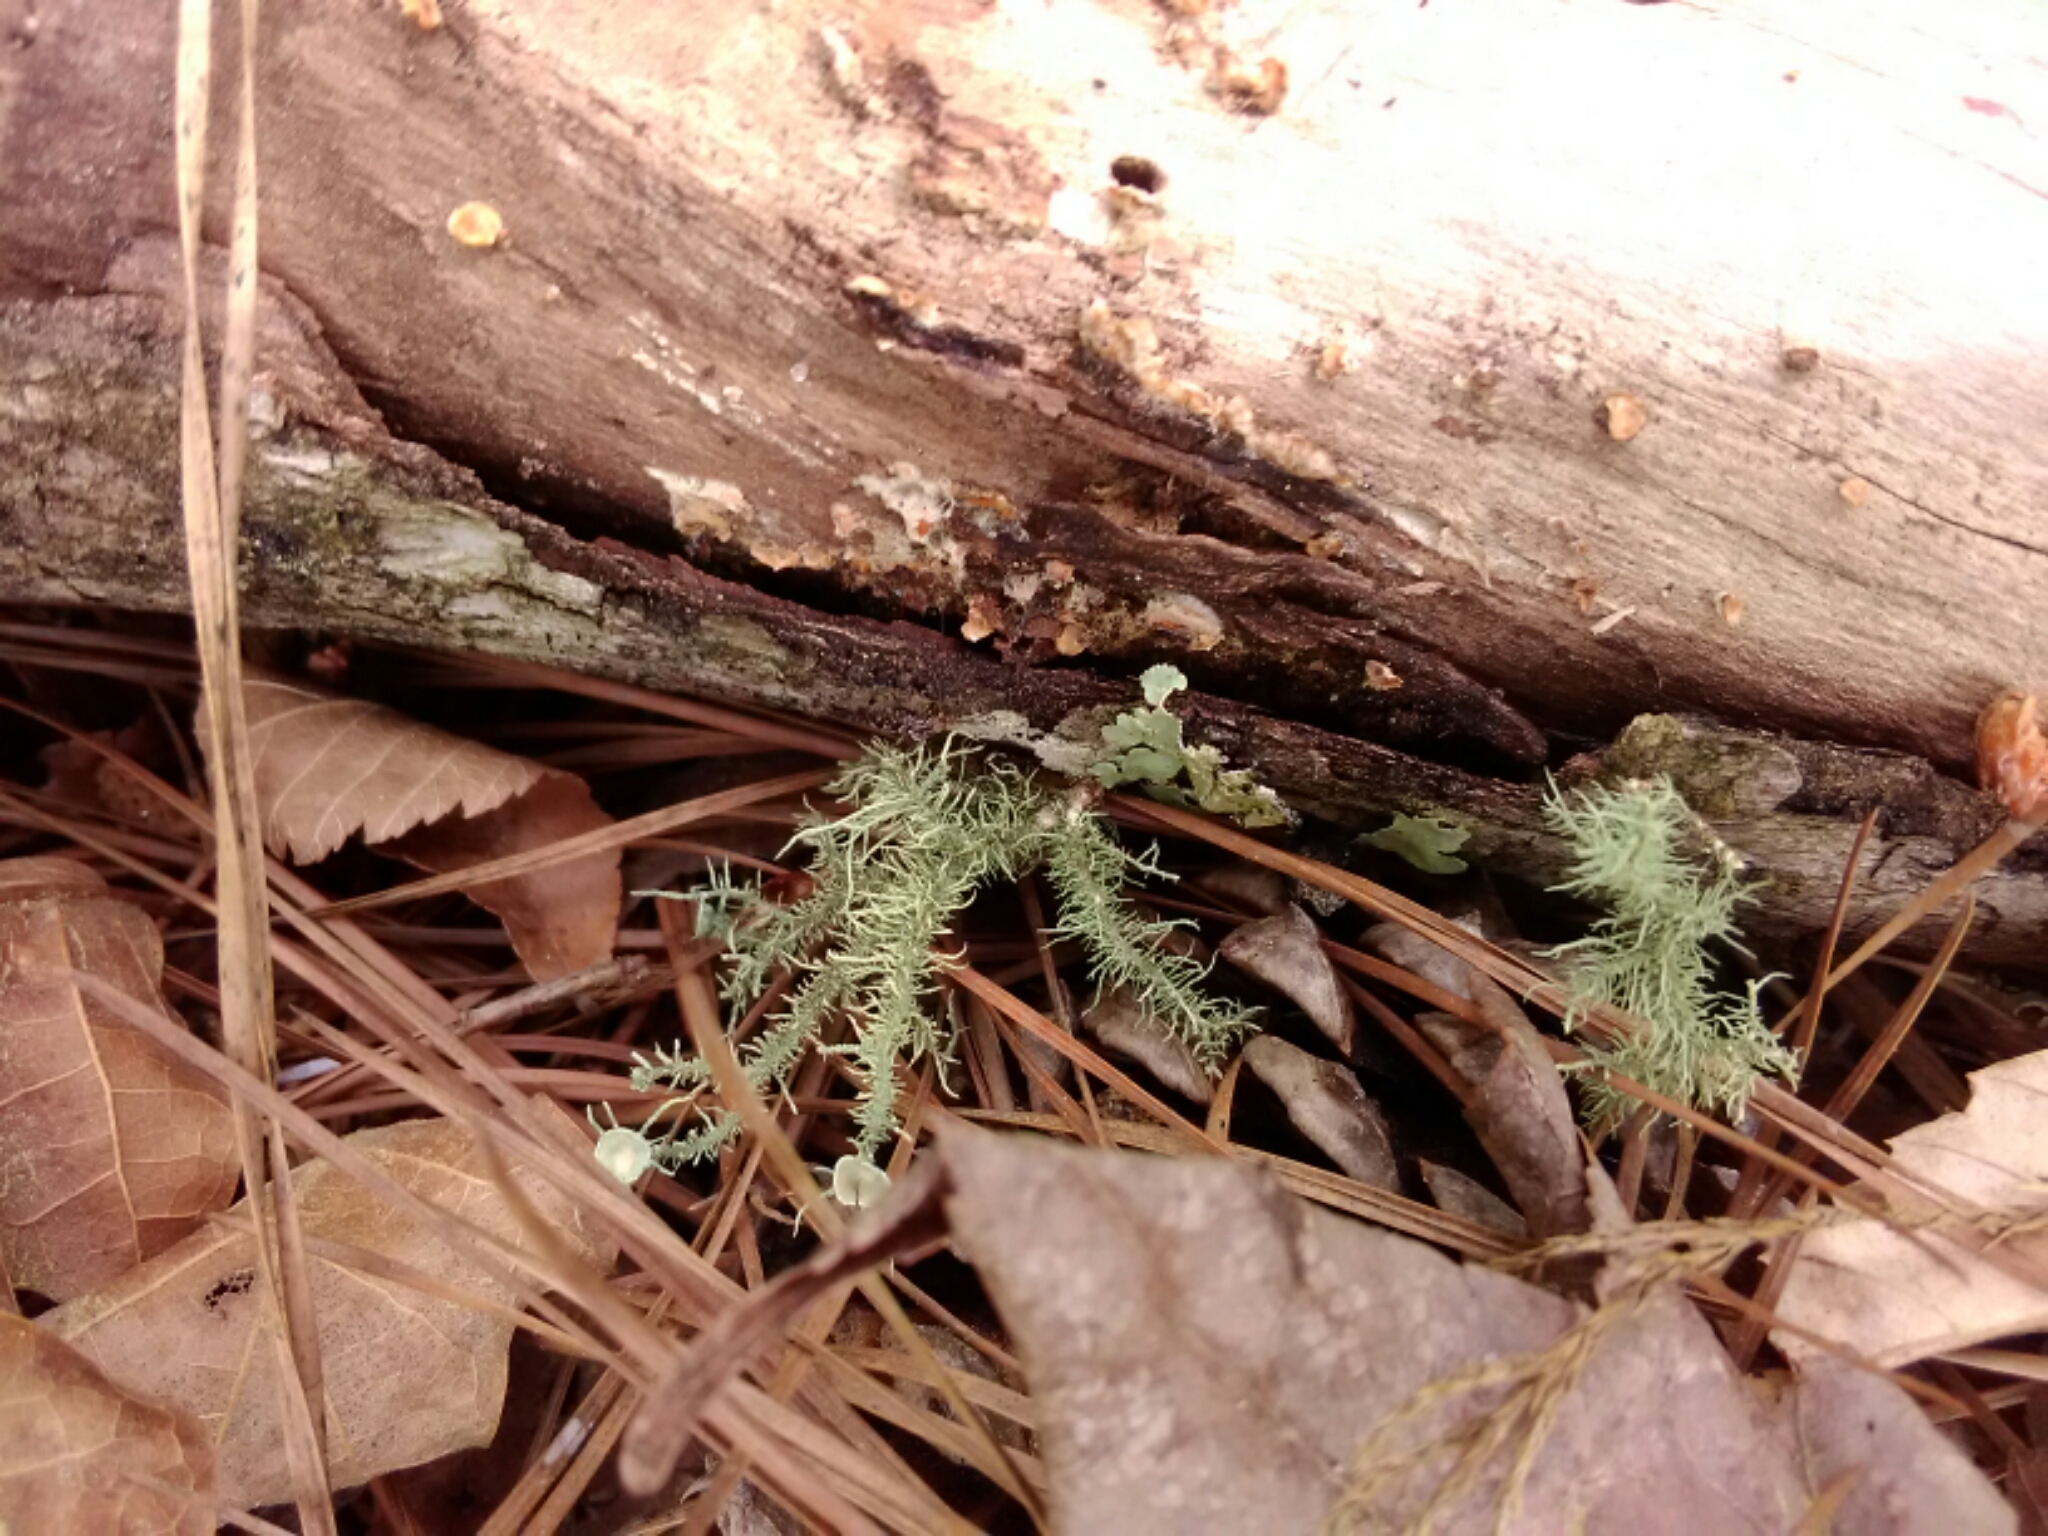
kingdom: Fungi
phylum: Ascomycota
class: Lecanoromycetes
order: Lecanorales
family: Parmeliaceae
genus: Usnea
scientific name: Usnea strigosa
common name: Bushy beard lichen
